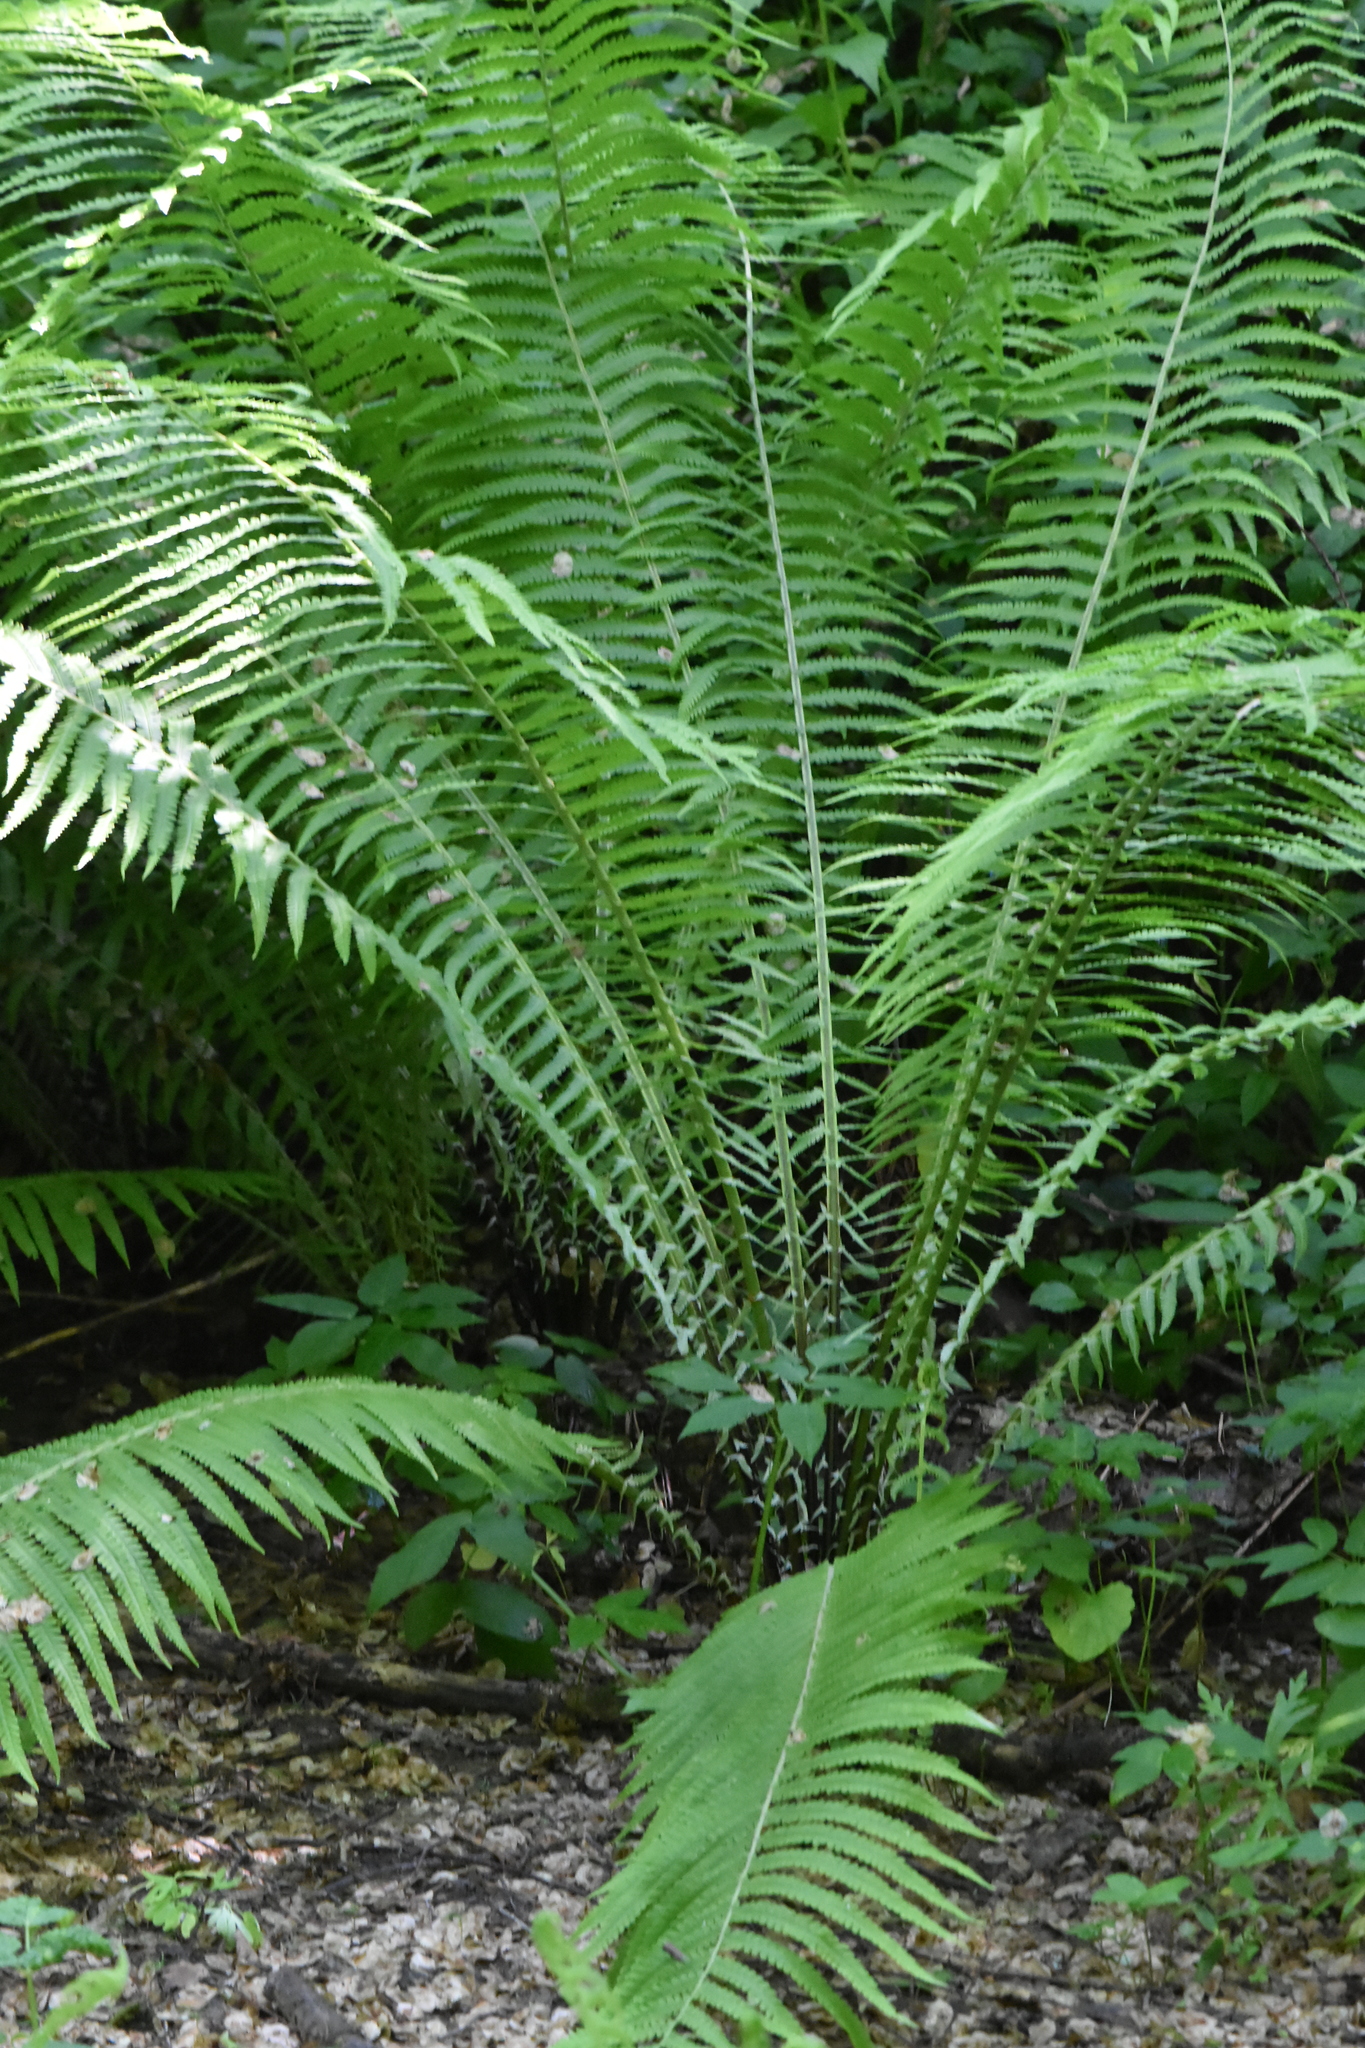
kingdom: Plantae
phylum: Tracheophyta
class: Polypodiopsida
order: Polypodiales
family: Onocleaceae
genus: Matteuccia
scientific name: Matteuccia struthiopteris
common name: Ostrich fern
